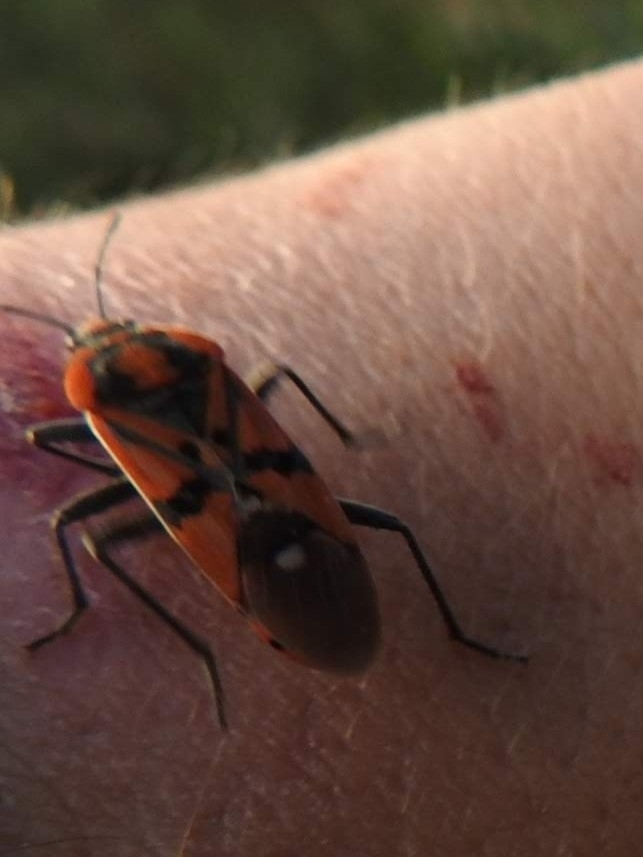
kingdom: Animalia
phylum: Arthropoda
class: Insecta
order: Hemiptera
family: Lygaeidae
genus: Spilostethus
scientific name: Spilostethus pandurus
